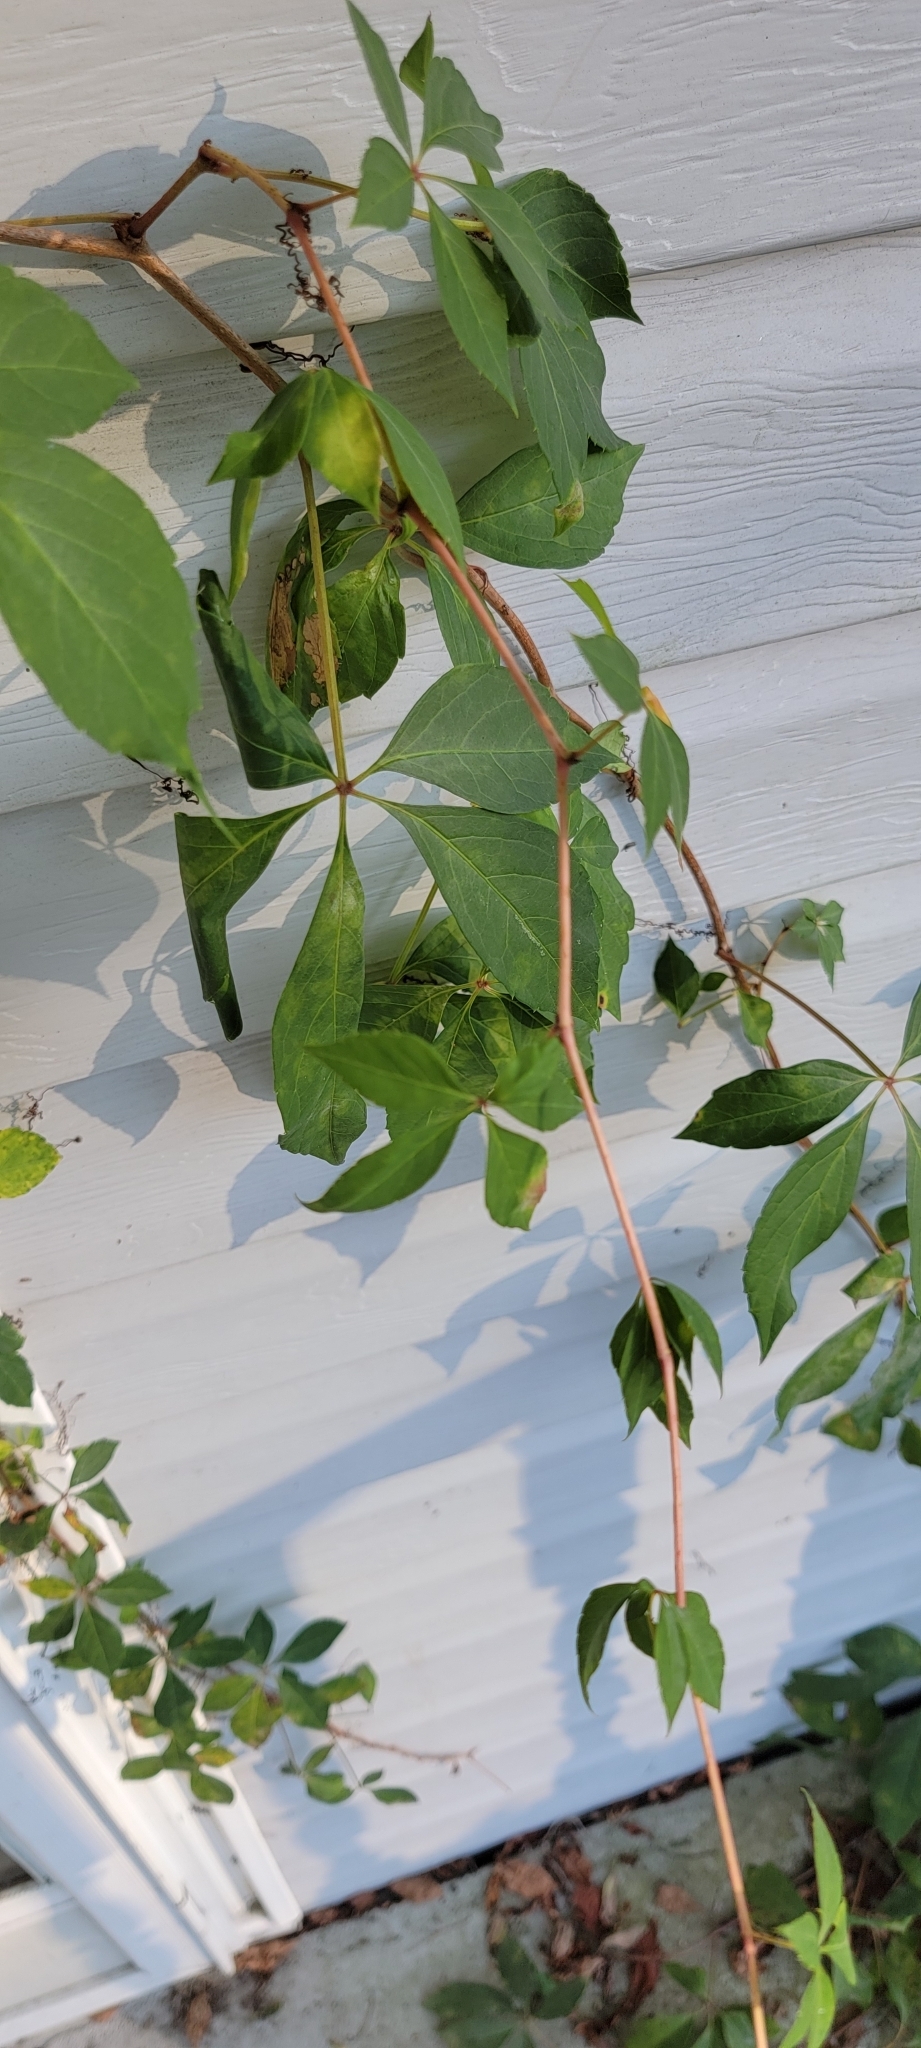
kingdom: Plantae
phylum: Tracheophyta
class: Magnoliopsida
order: Vitales
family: Vitaceae
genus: Parthenocissus
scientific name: Parthenocissus quinquefolia
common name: Virginia-creeper
